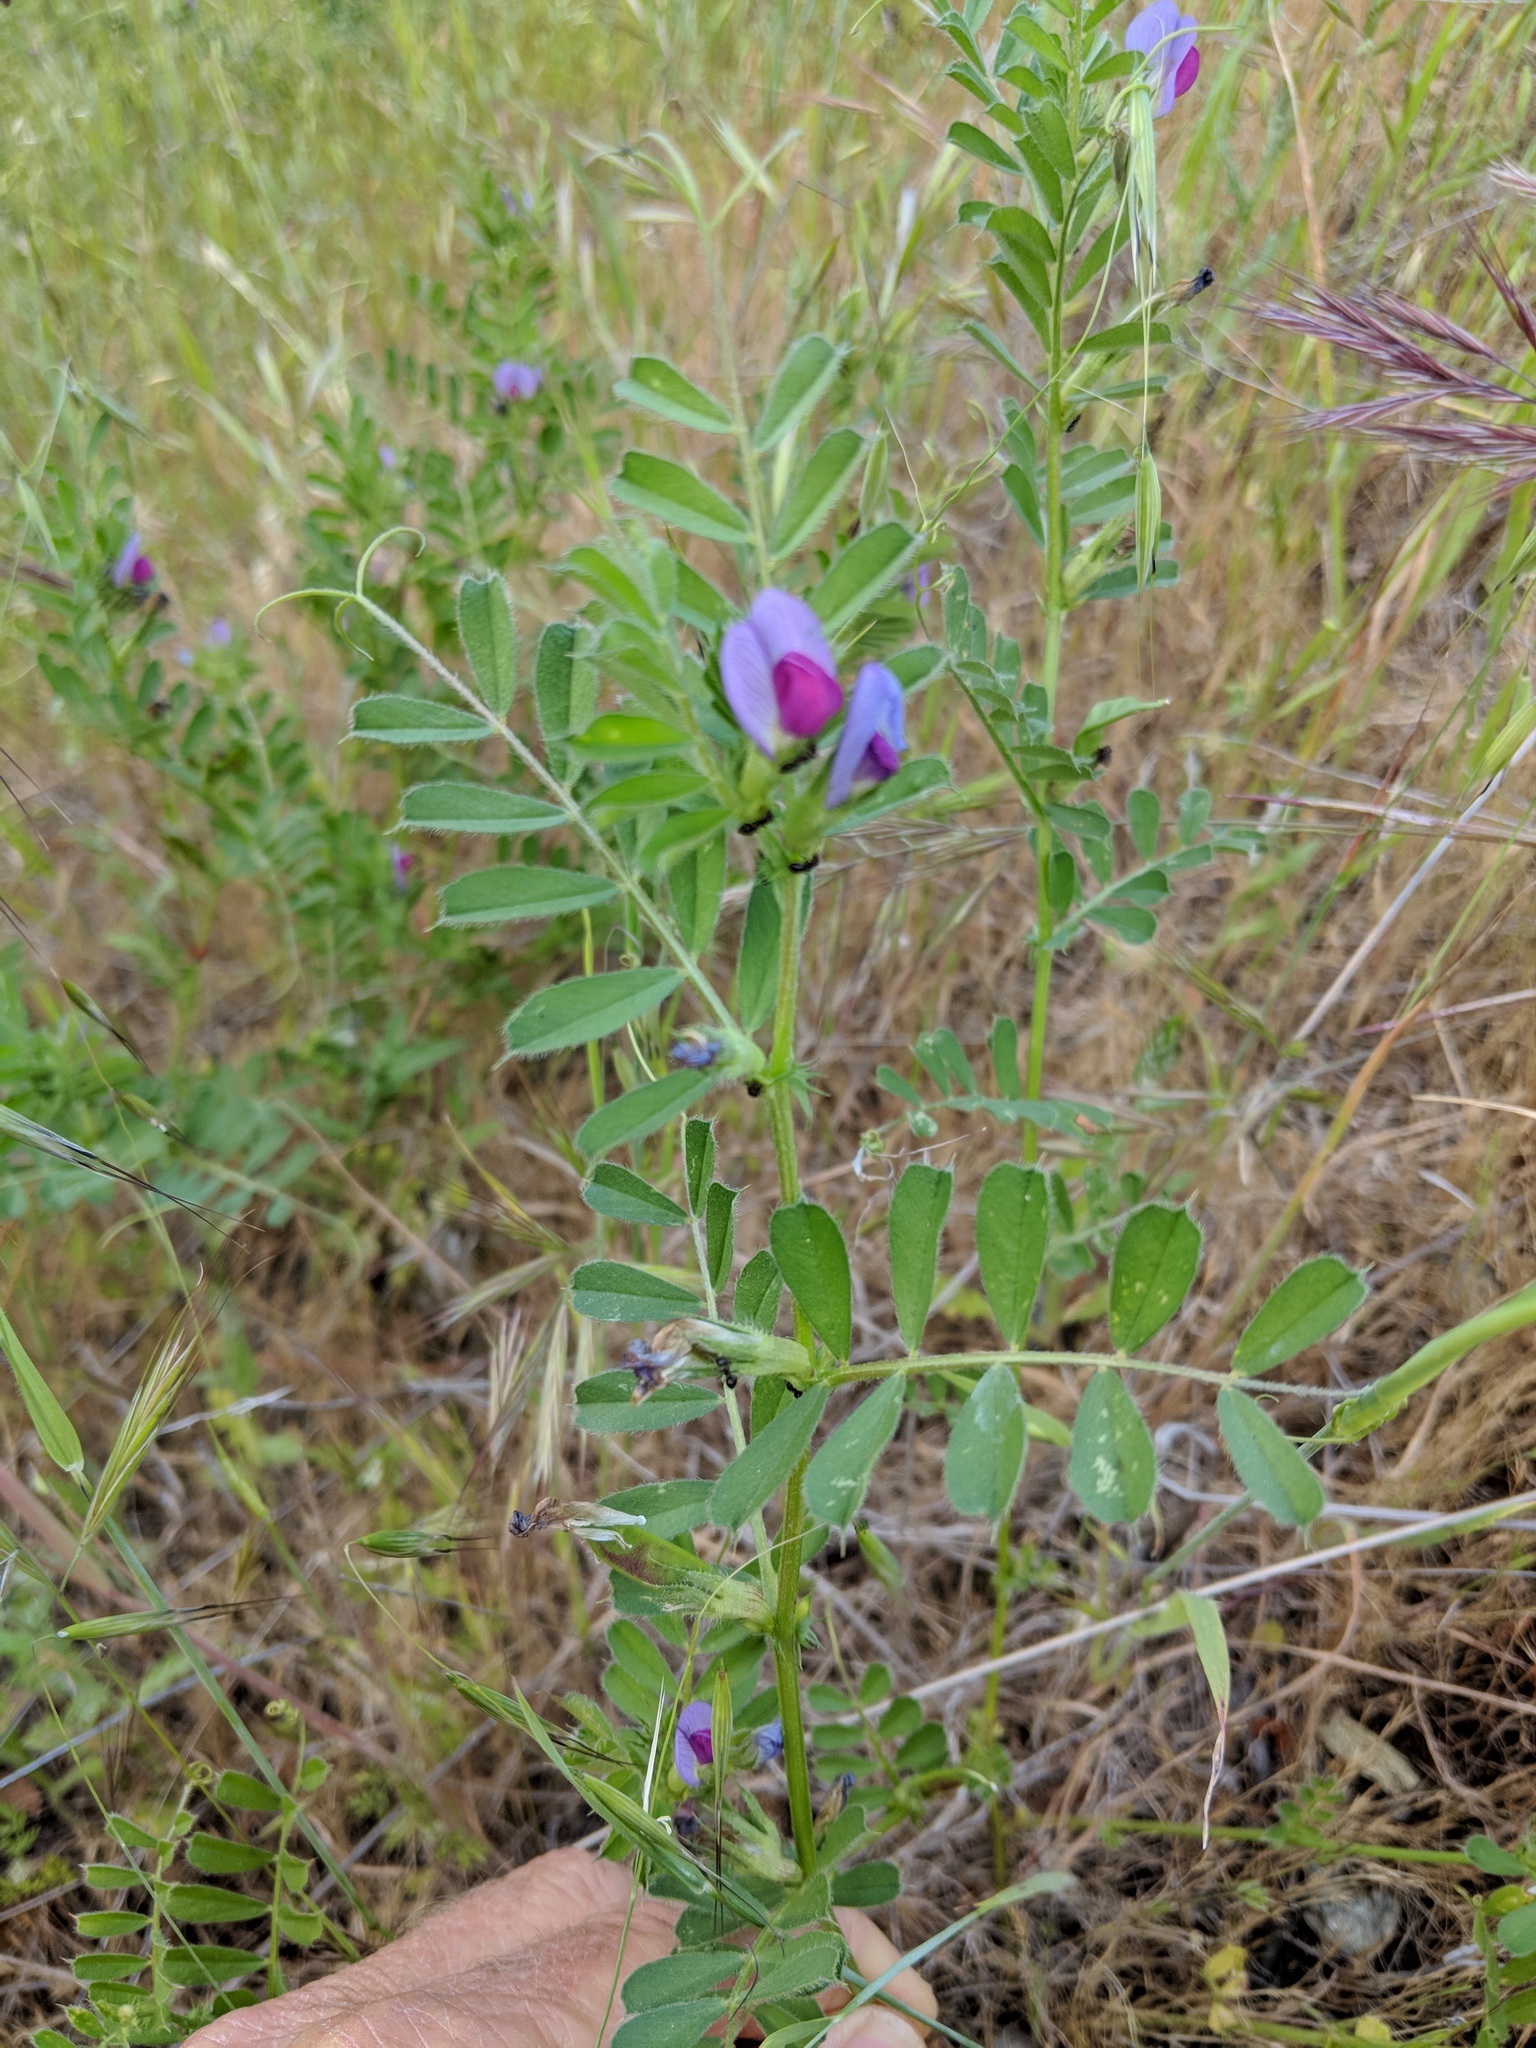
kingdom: Plantae
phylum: Tracheophyta
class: Magnoliopsida
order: Fabales
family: Fabaceae
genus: Vicia
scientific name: Vicia sativa
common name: Garden vetch
